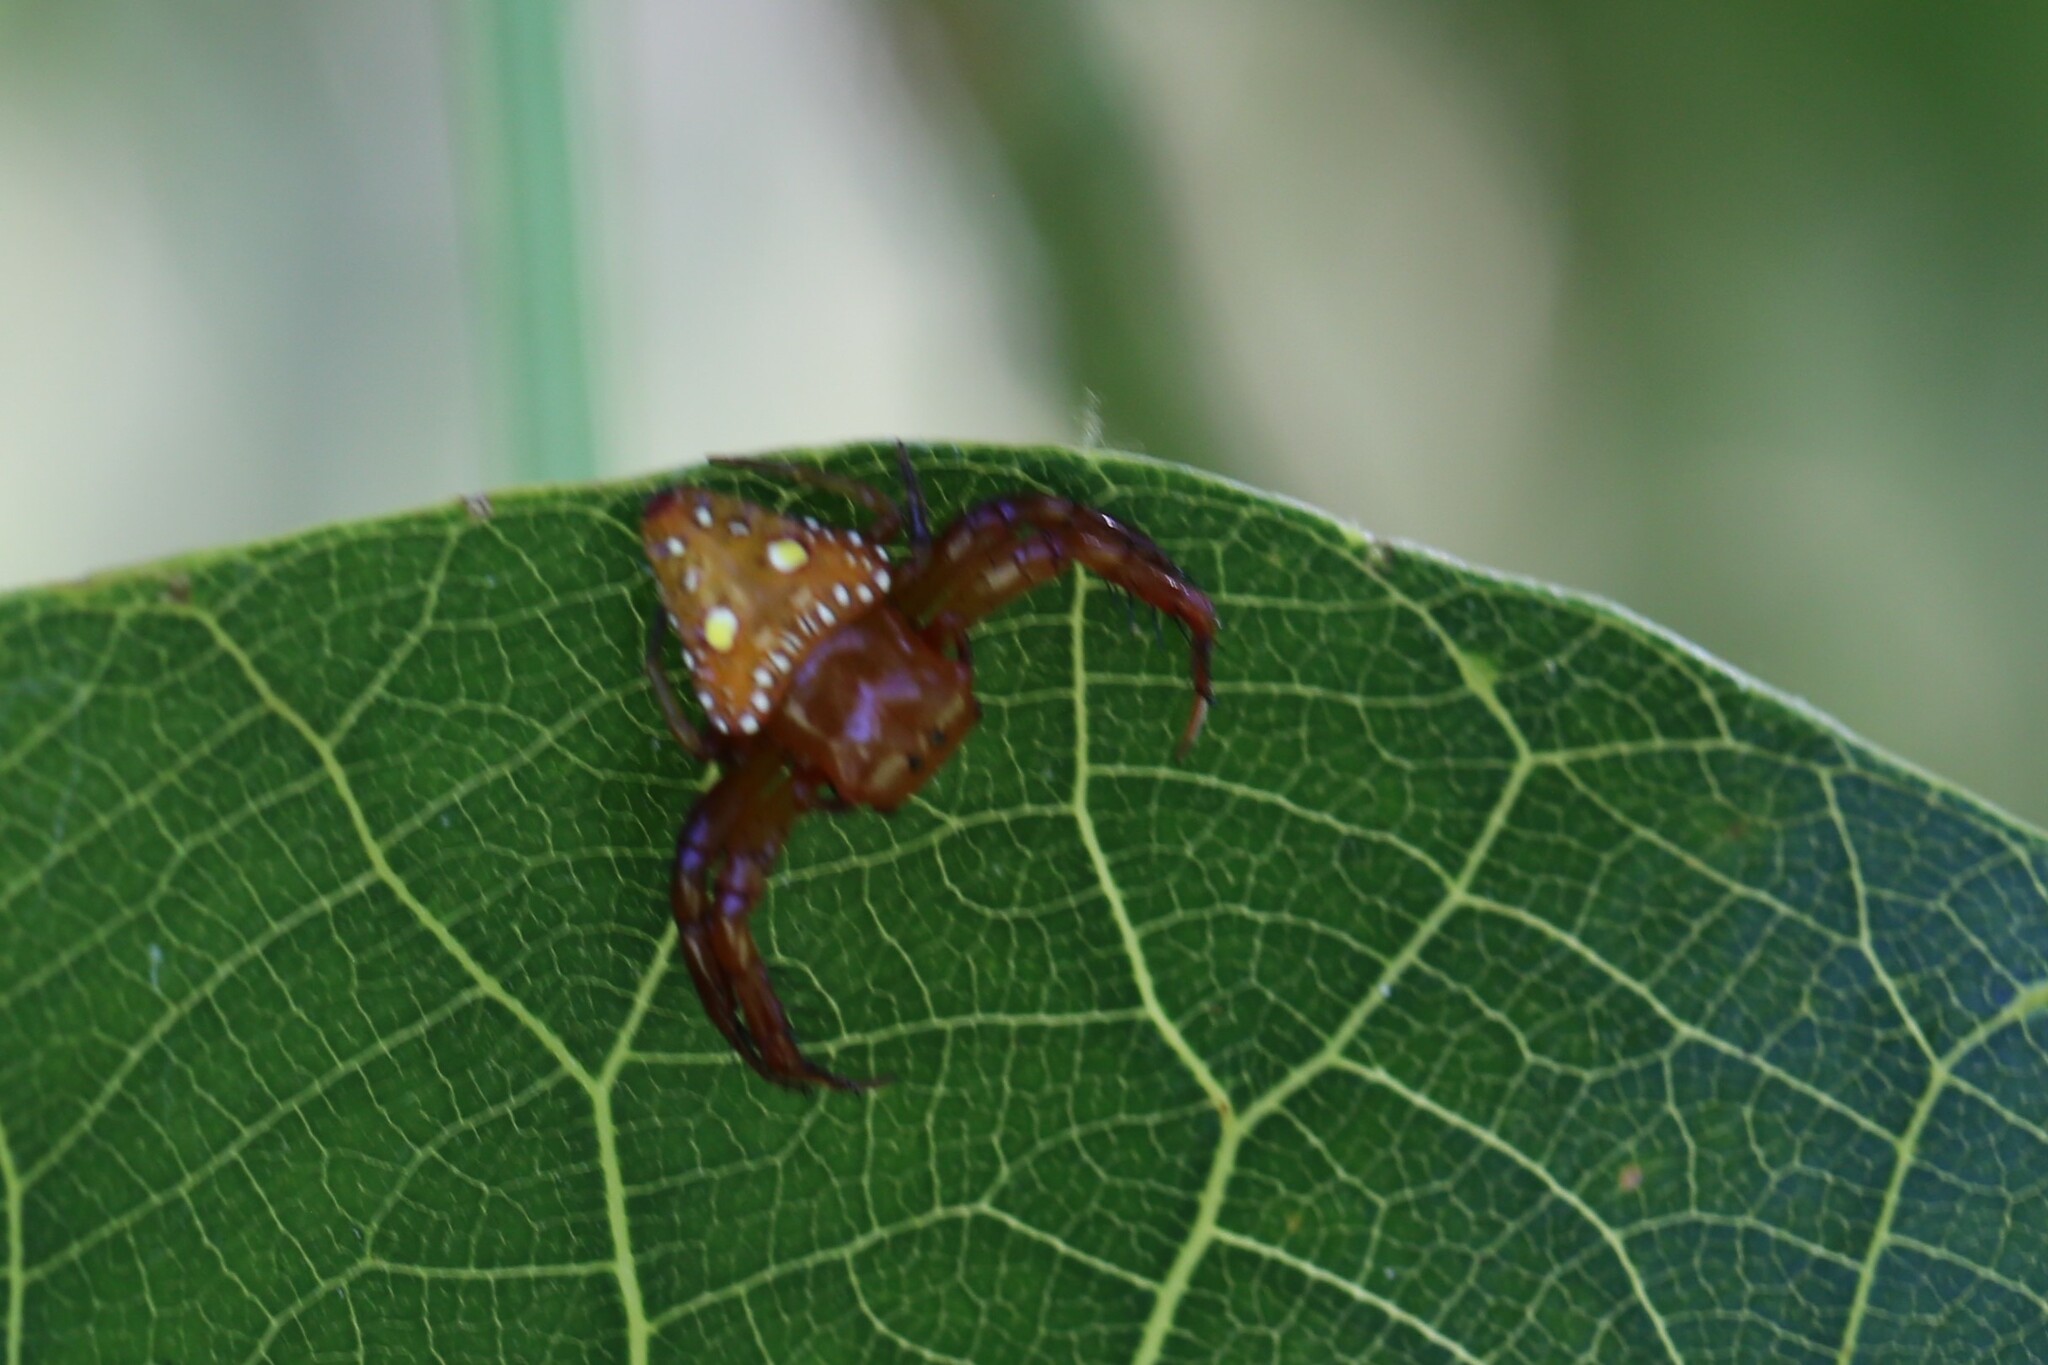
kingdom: Animalia
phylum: Arthropoda
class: Arachnida
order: Araneae
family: Arkyidae
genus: Arkys
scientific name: Arkys lancearius
